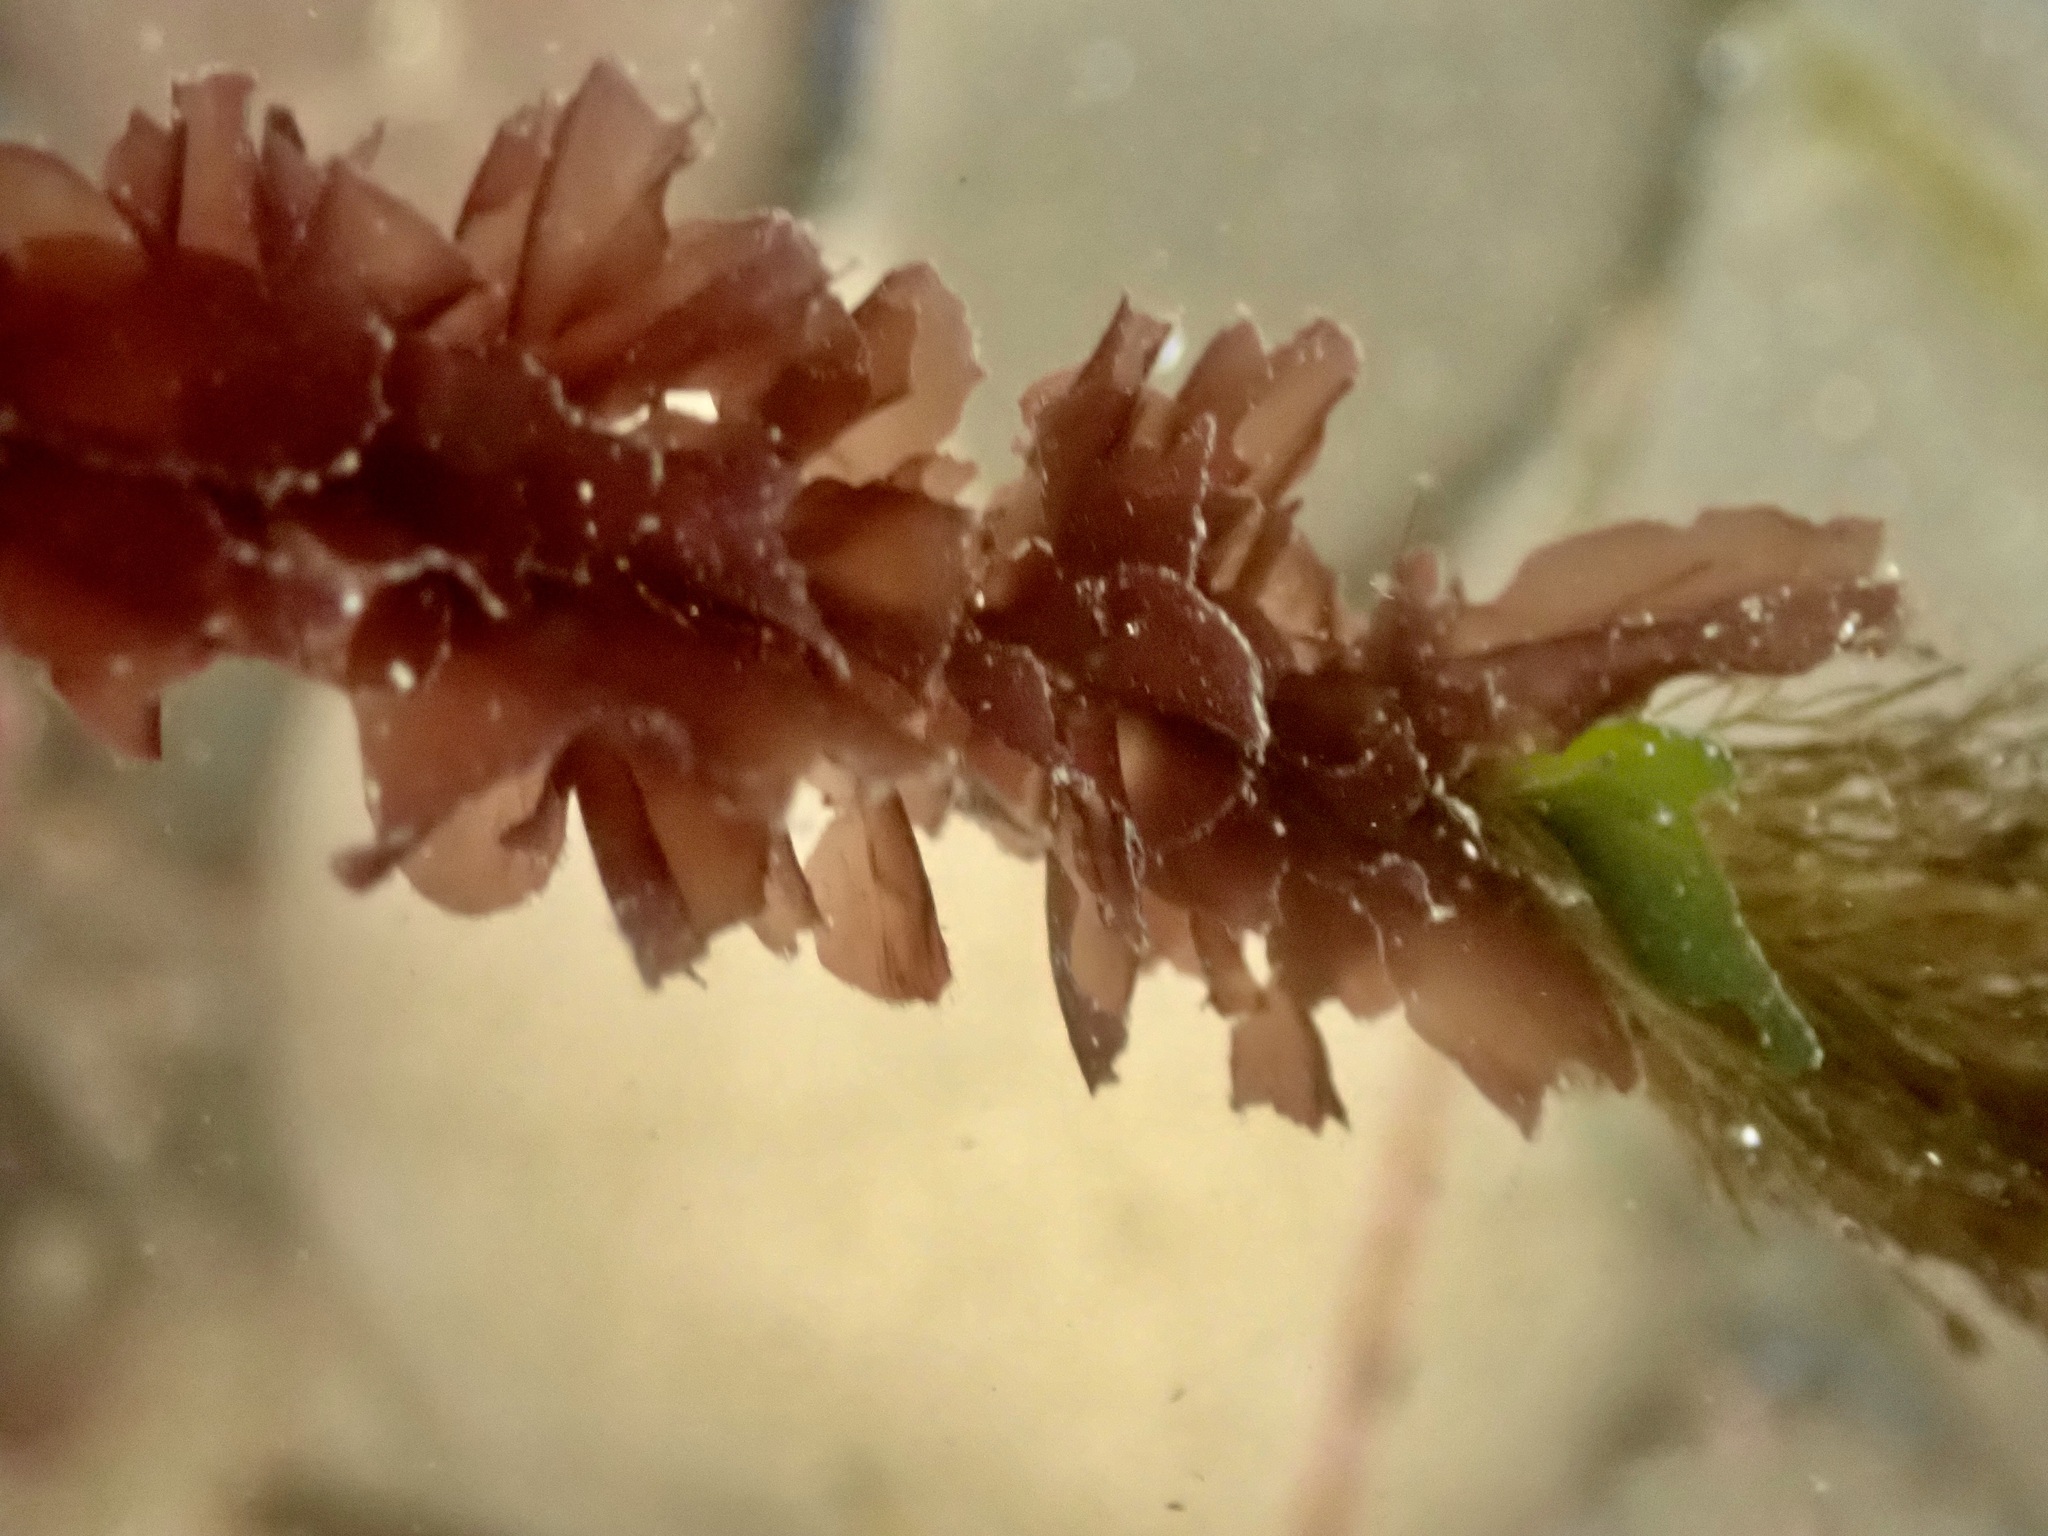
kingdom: Plantae
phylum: Rhodophyta
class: Compsopogonophyceae
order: Erythropeltidales
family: Erythrotrichiaceae
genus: Smithora
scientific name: Smithora naiadum
